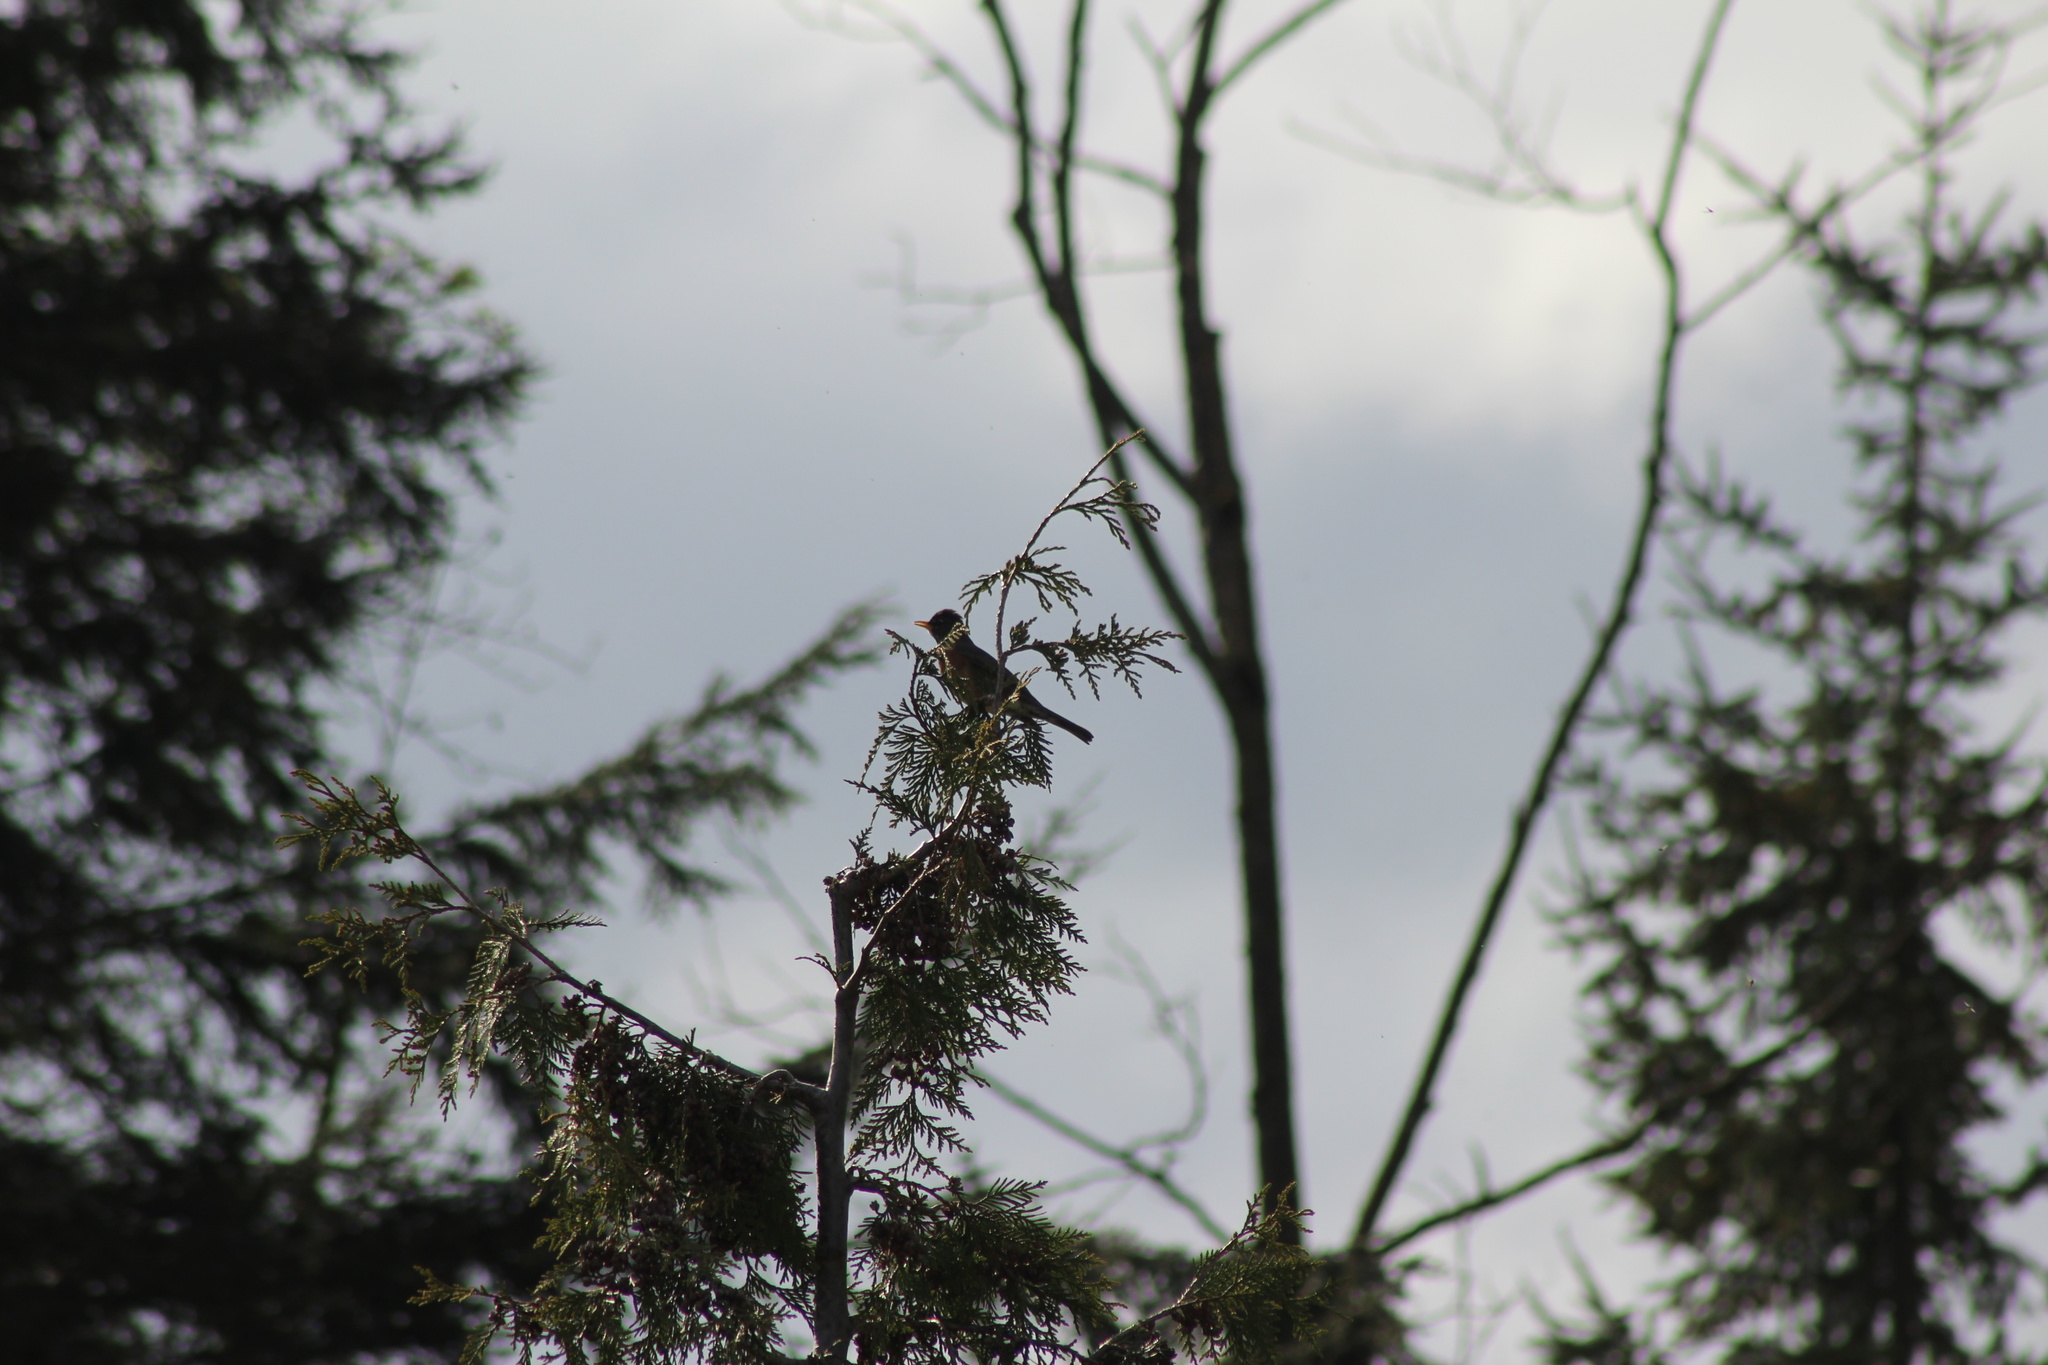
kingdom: Animalia
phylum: Chordata
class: Aves
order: Passeriformes
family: Turdidae
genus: Turdus
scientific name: Turdus migratorius
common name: American robin
